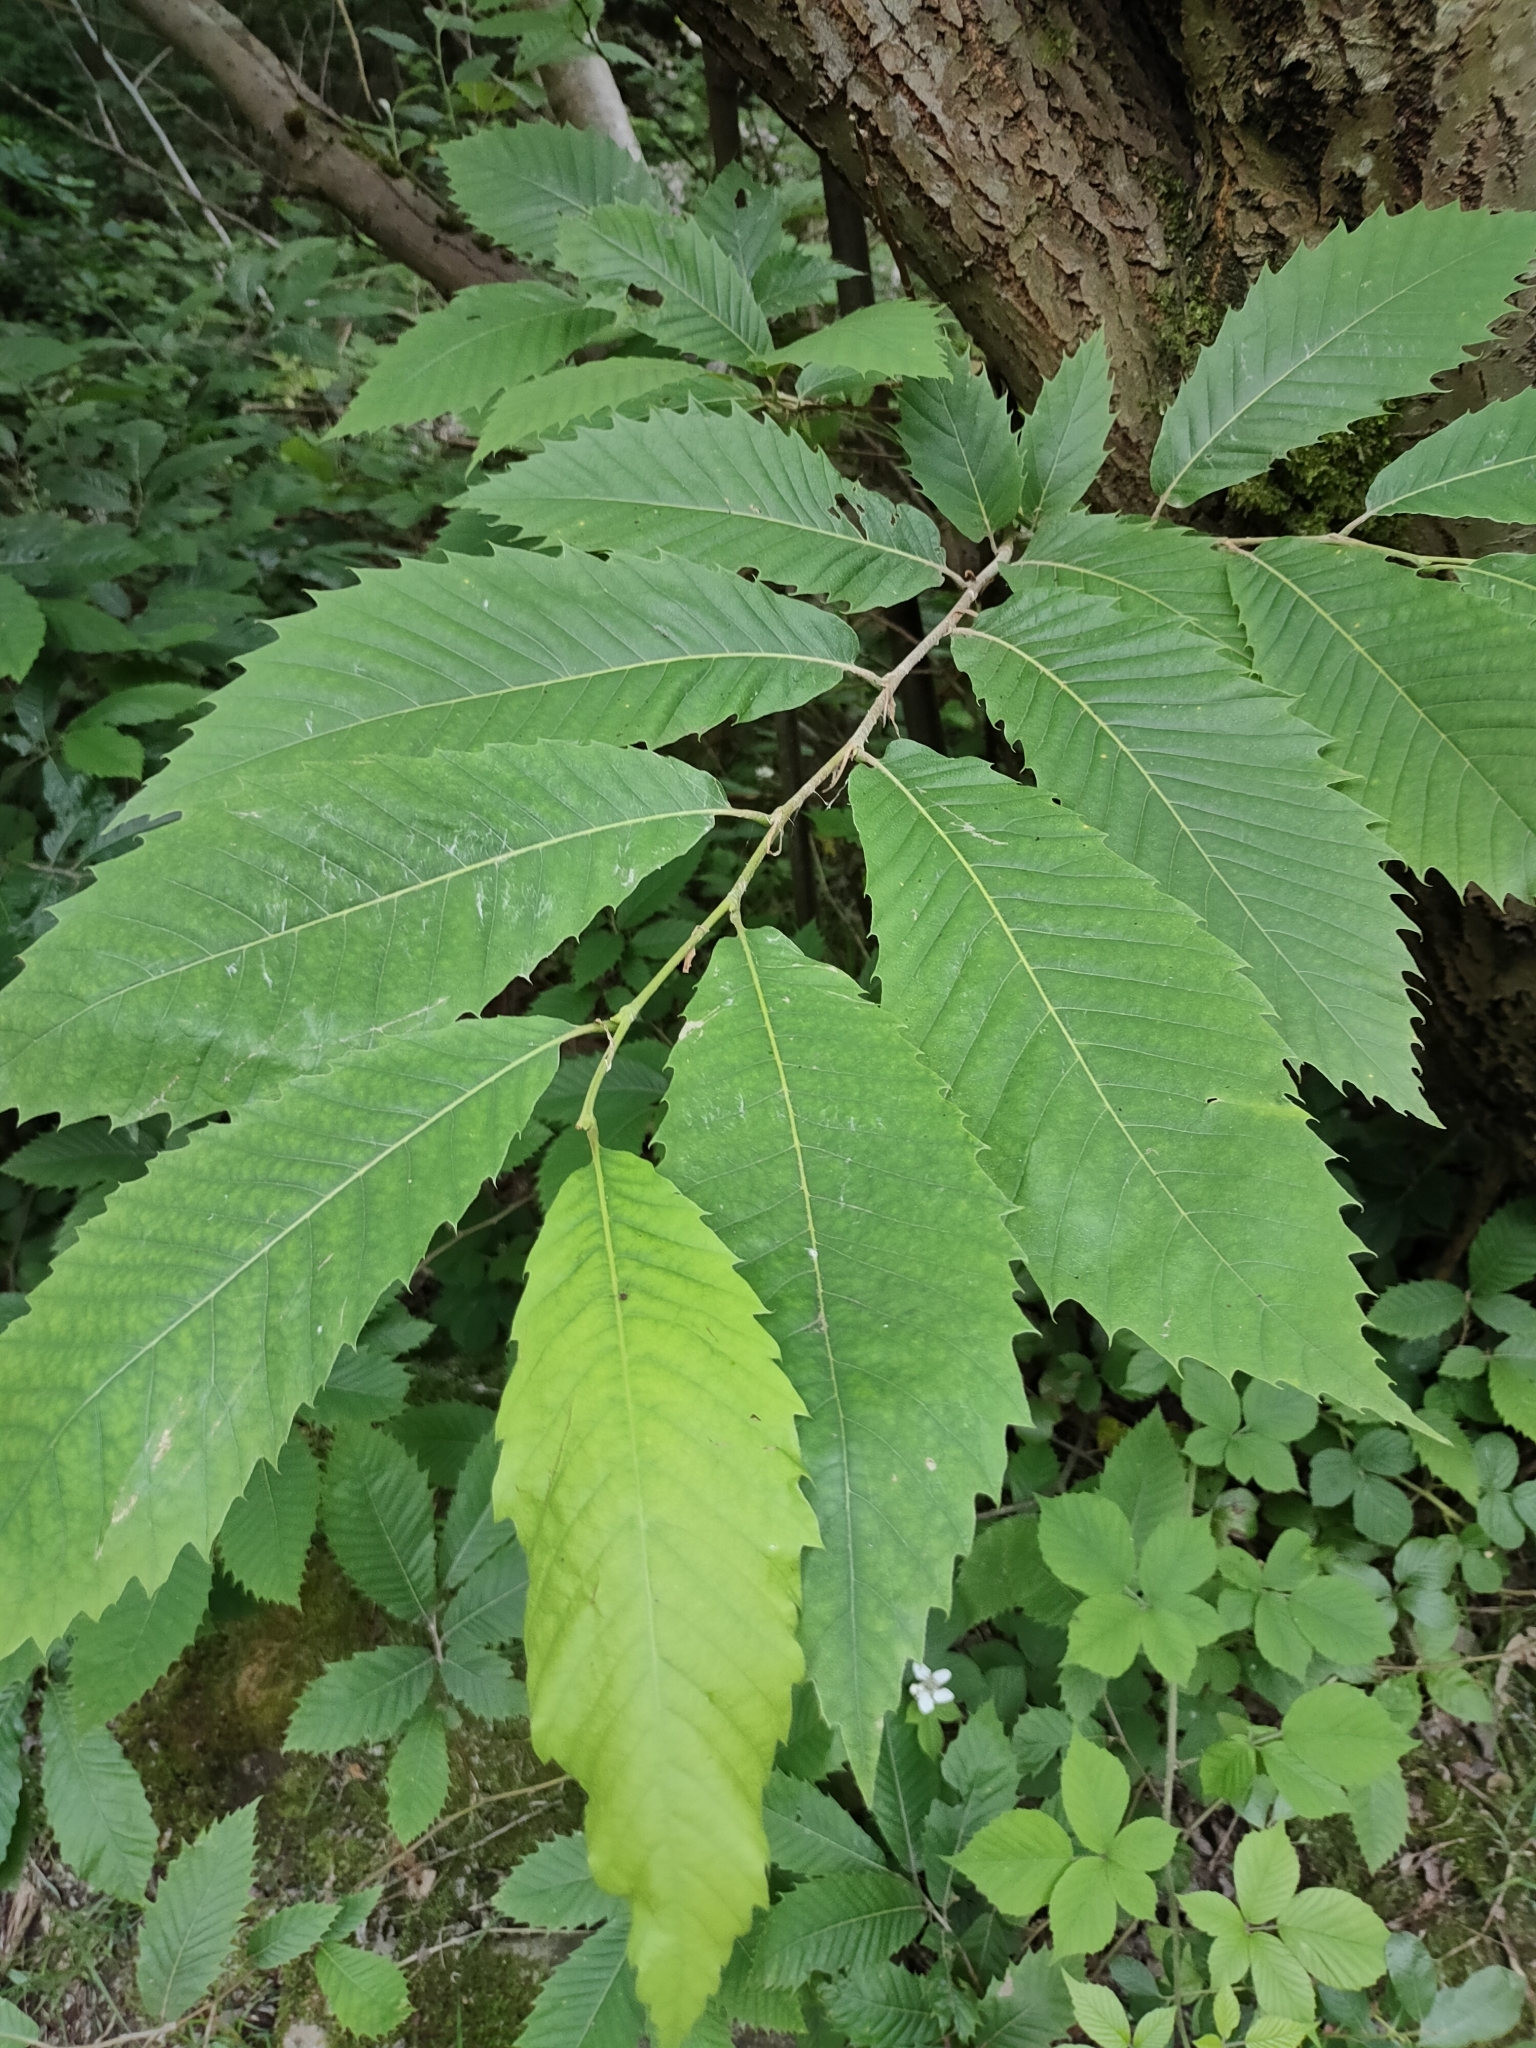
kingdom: Plantae
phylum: Tracheophyta
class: Magnoliopsida
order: Fagales
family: Fagaceae
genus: Castanea
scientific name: Castanea sativa
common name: Sweet chestnut
